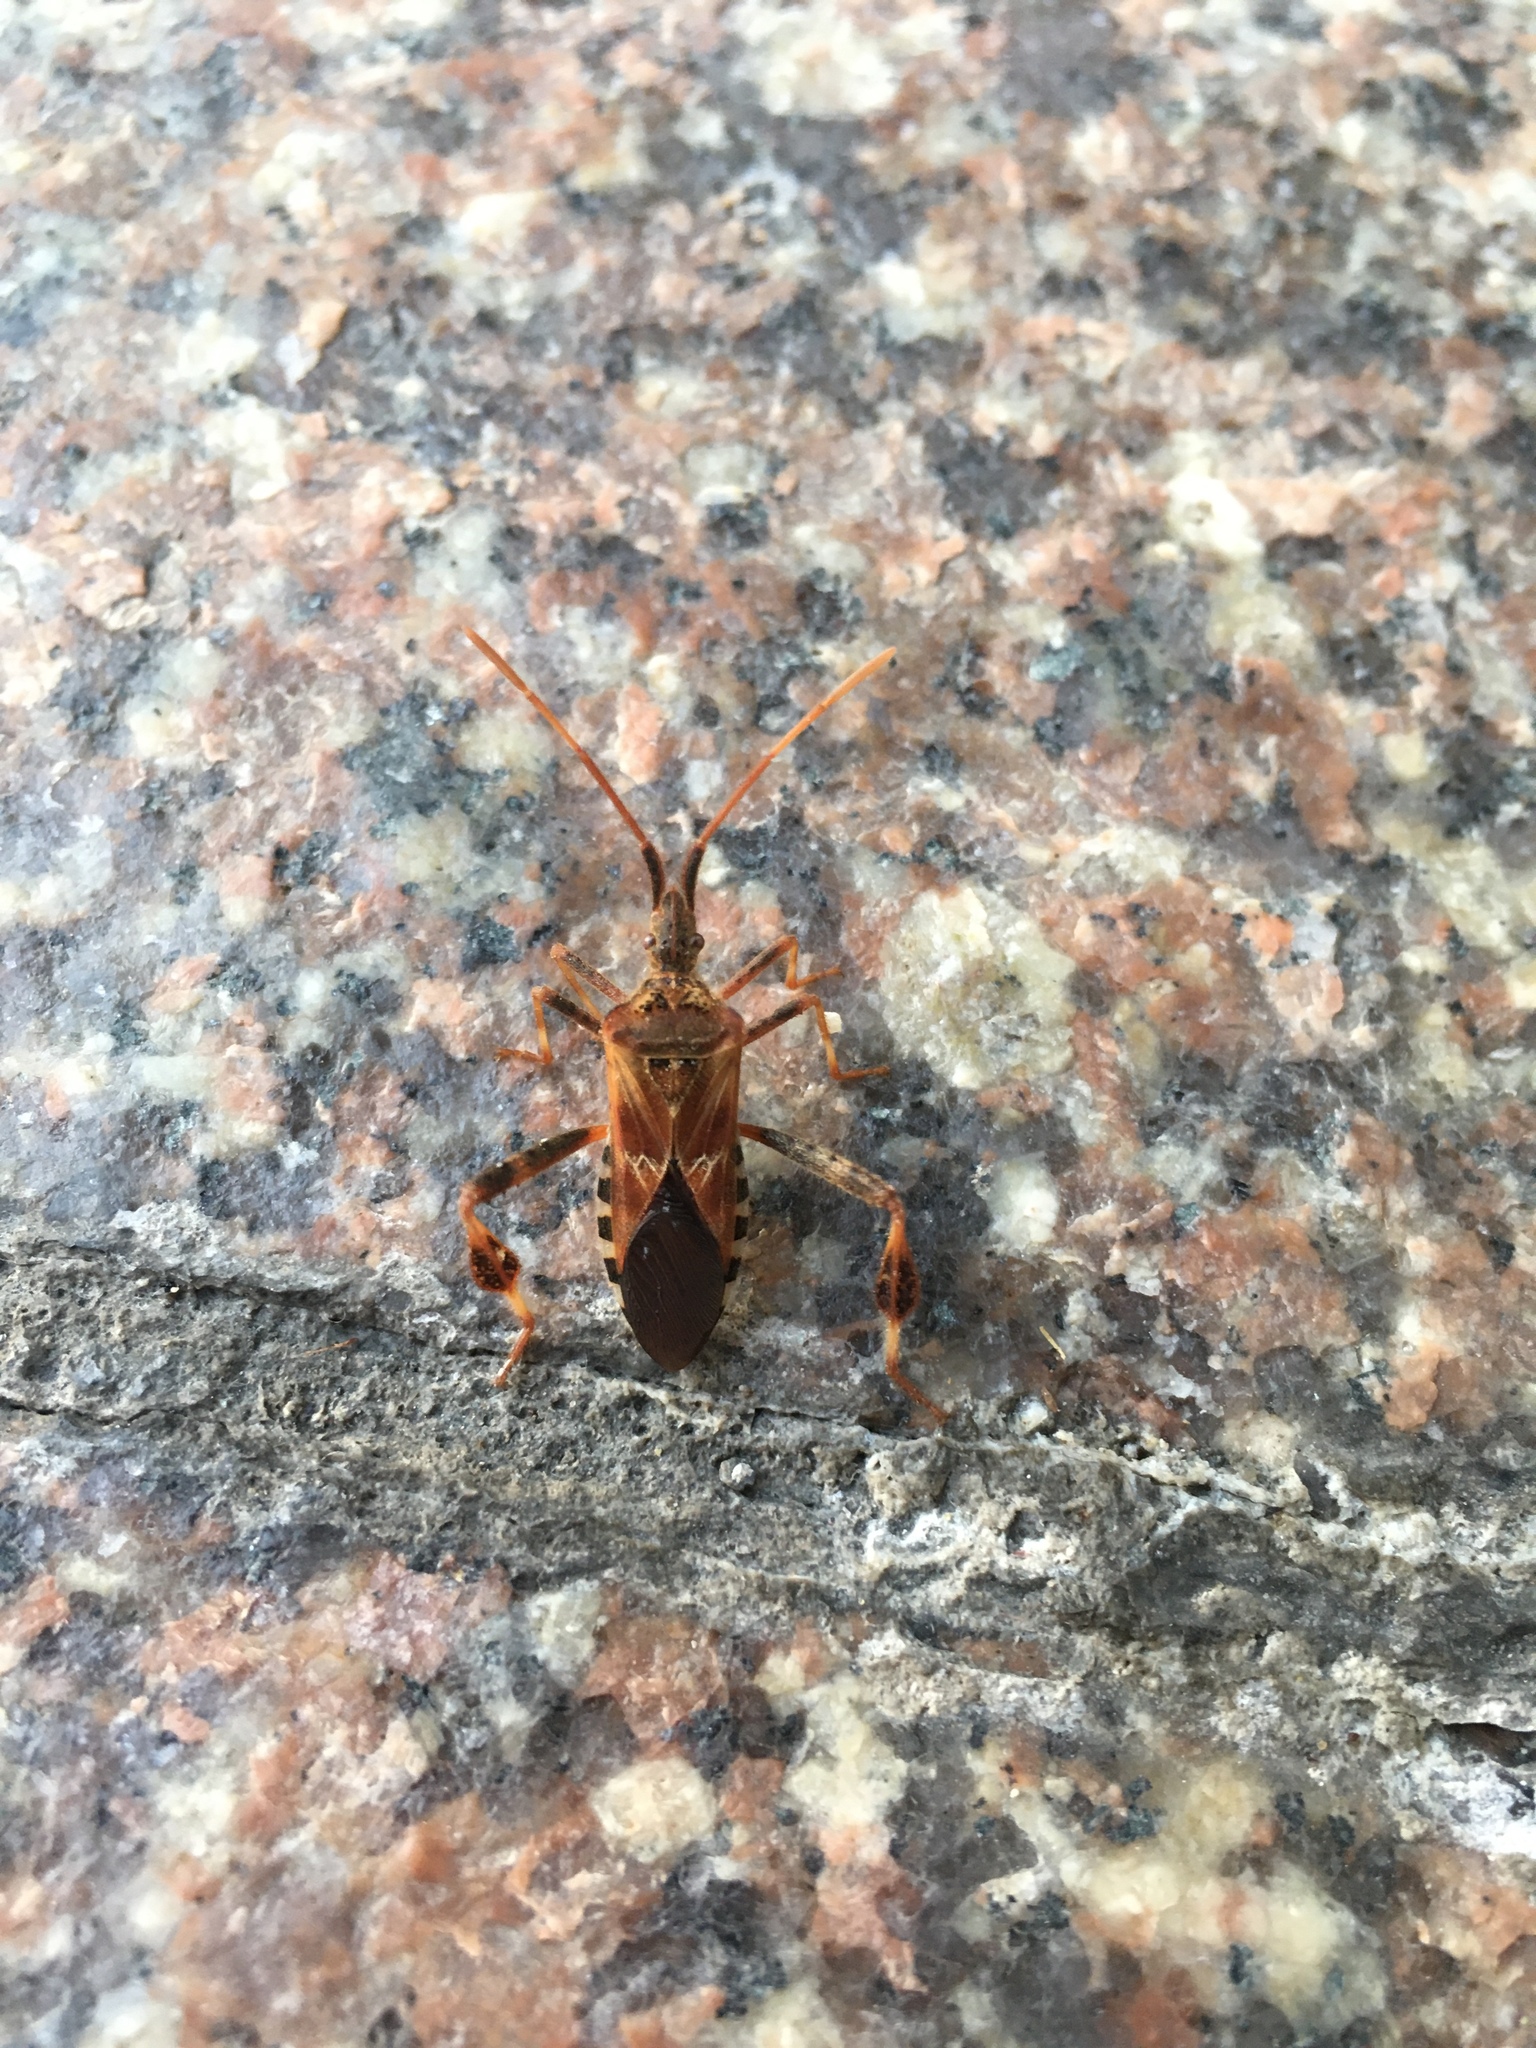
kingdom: Animalia
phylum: Arthropoda
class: Insecta
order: Hemiptera
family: Coreidae
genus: Leptoglossus
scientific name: Leptoglossus occidentalis
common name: Western conifer-seed bug
